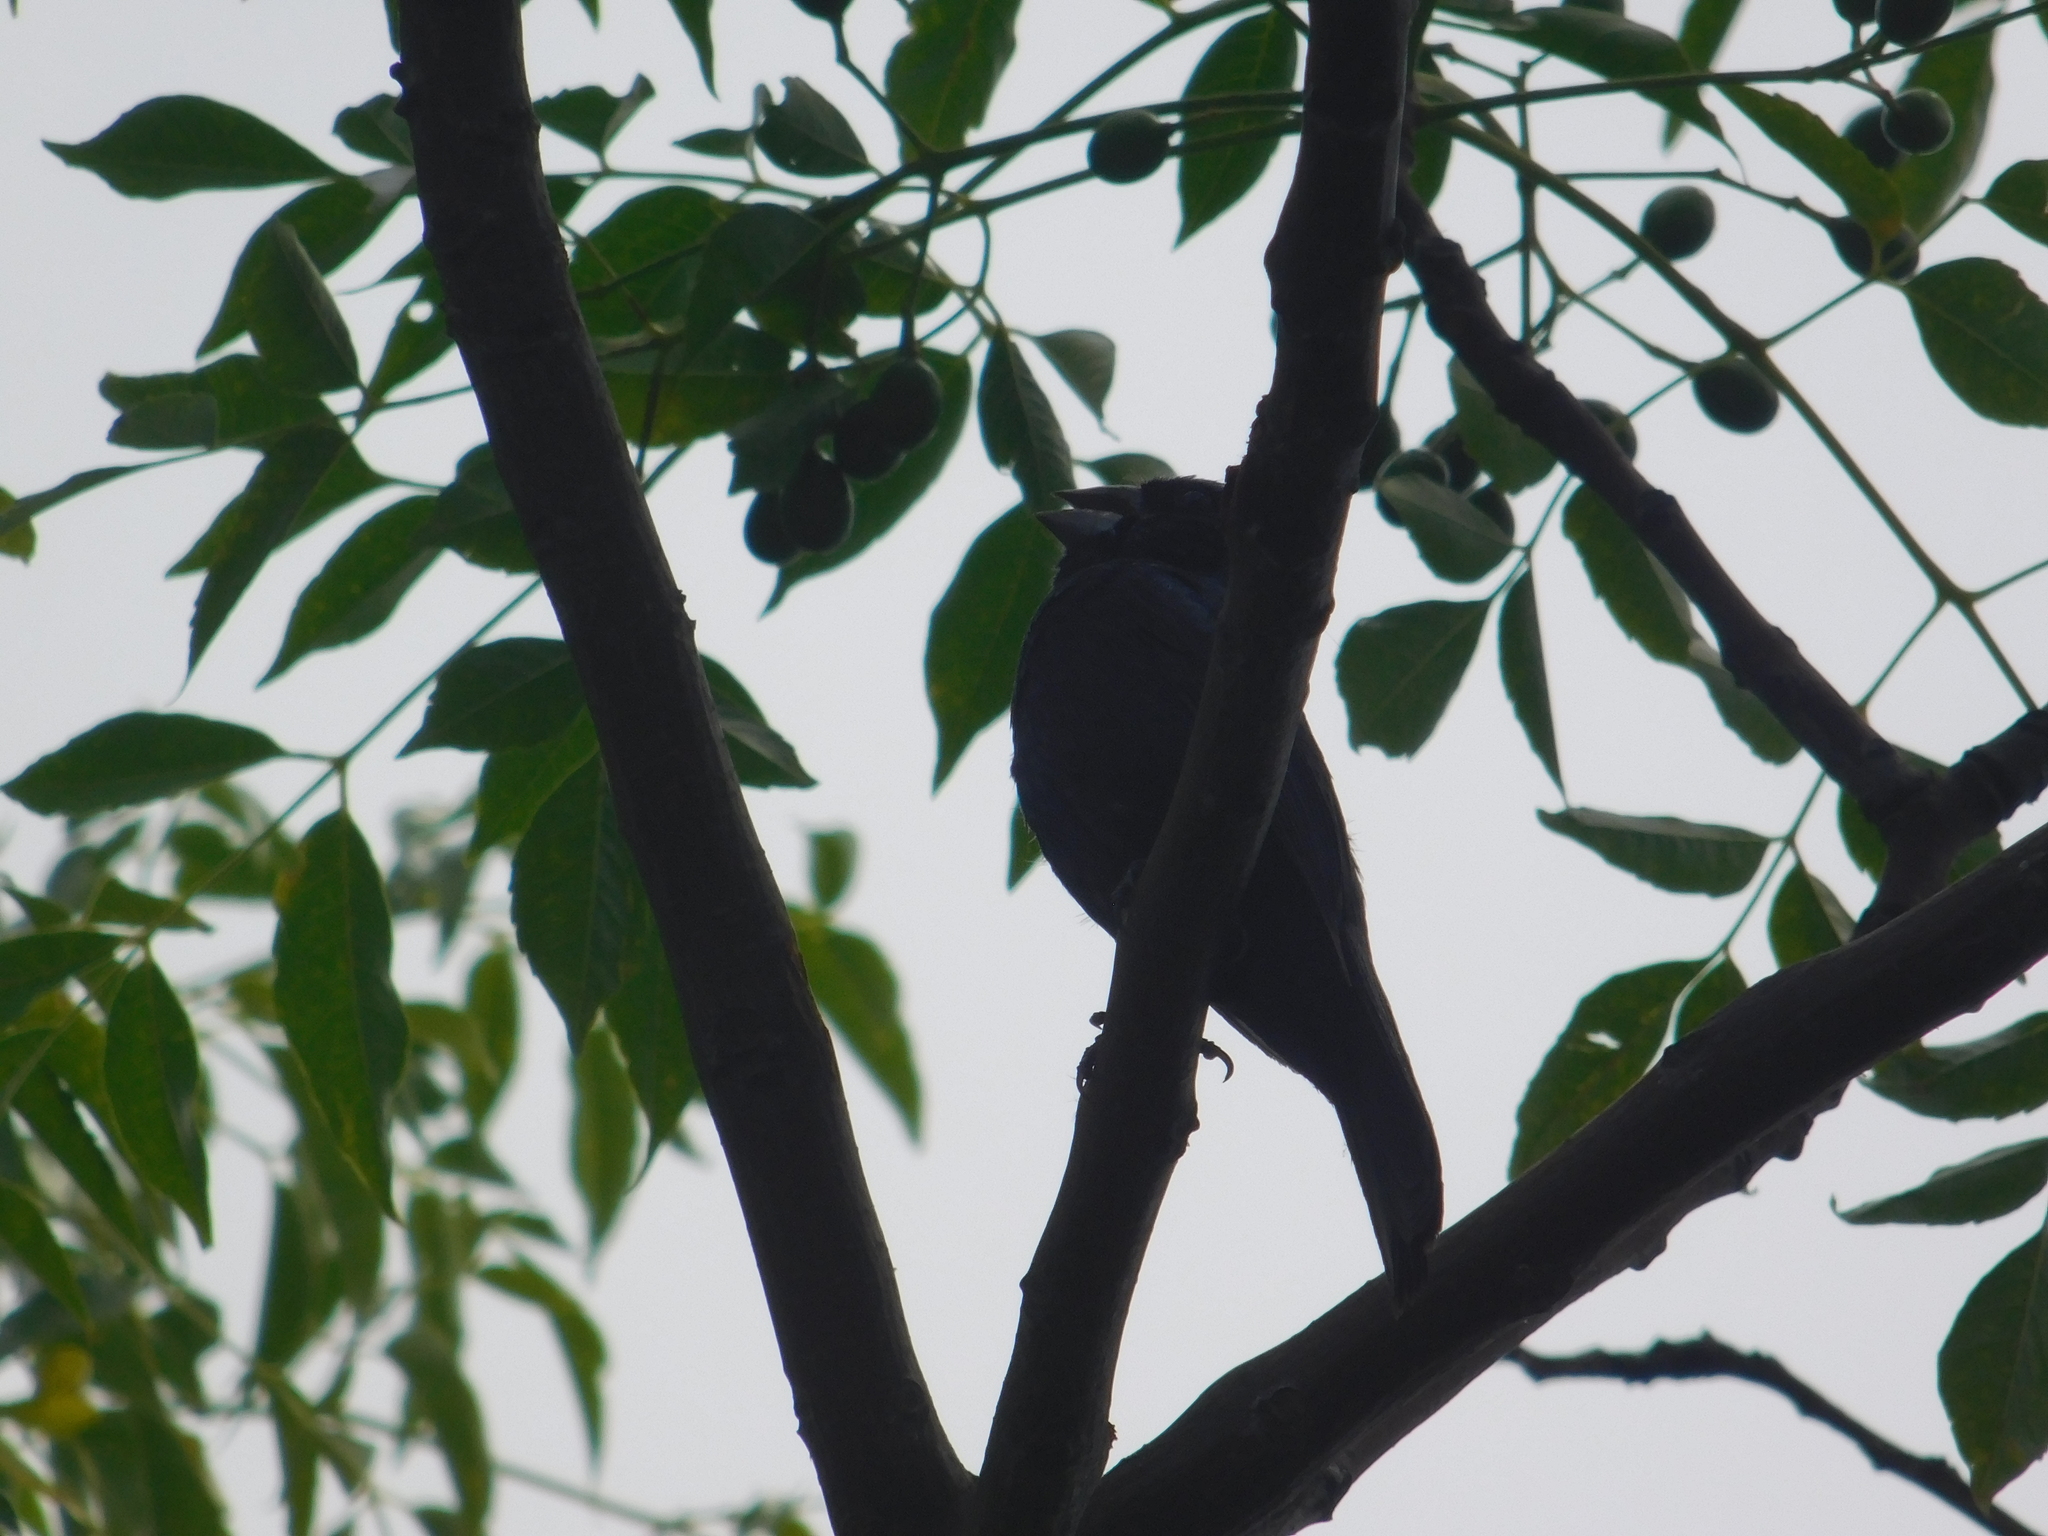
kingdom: Animalia
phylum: Chordata
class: Aves
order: Passeriformes
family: Cardinalidae
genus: Cyanoloxia
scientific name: Cyanoloxia brissonii
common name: Ultramarine grosbeak
